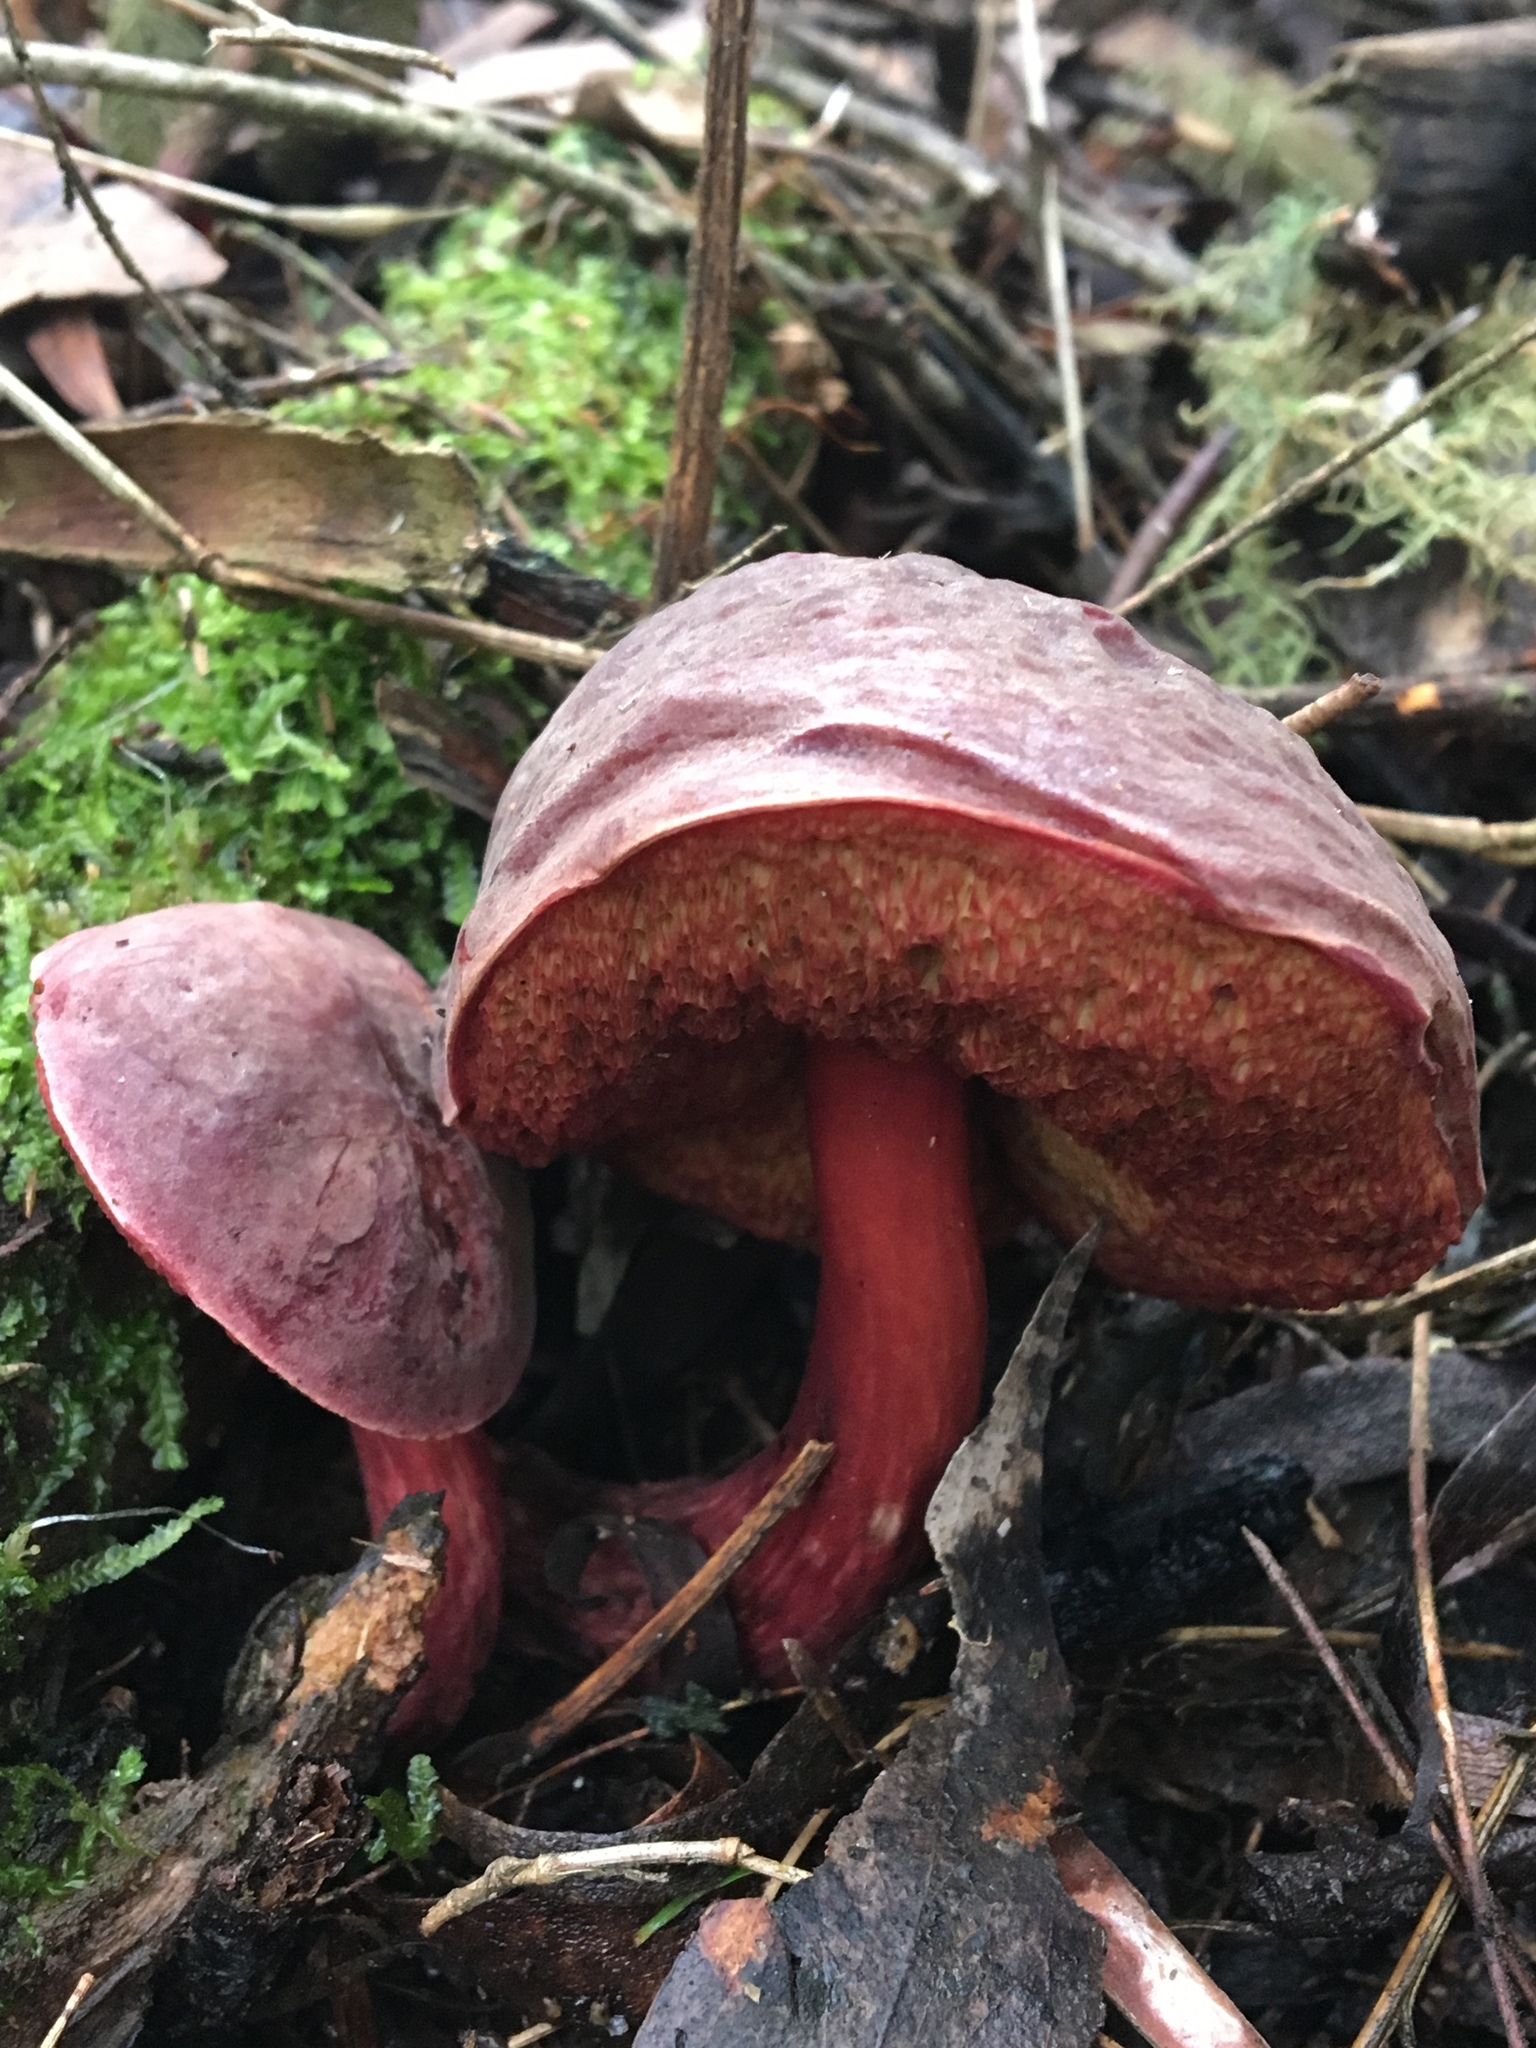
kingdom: Fungi
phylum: Basidiomycota
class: Agaricomycetes
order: Boletales
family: Boletaceae
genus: Boletus
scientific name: Boletus barragensis
